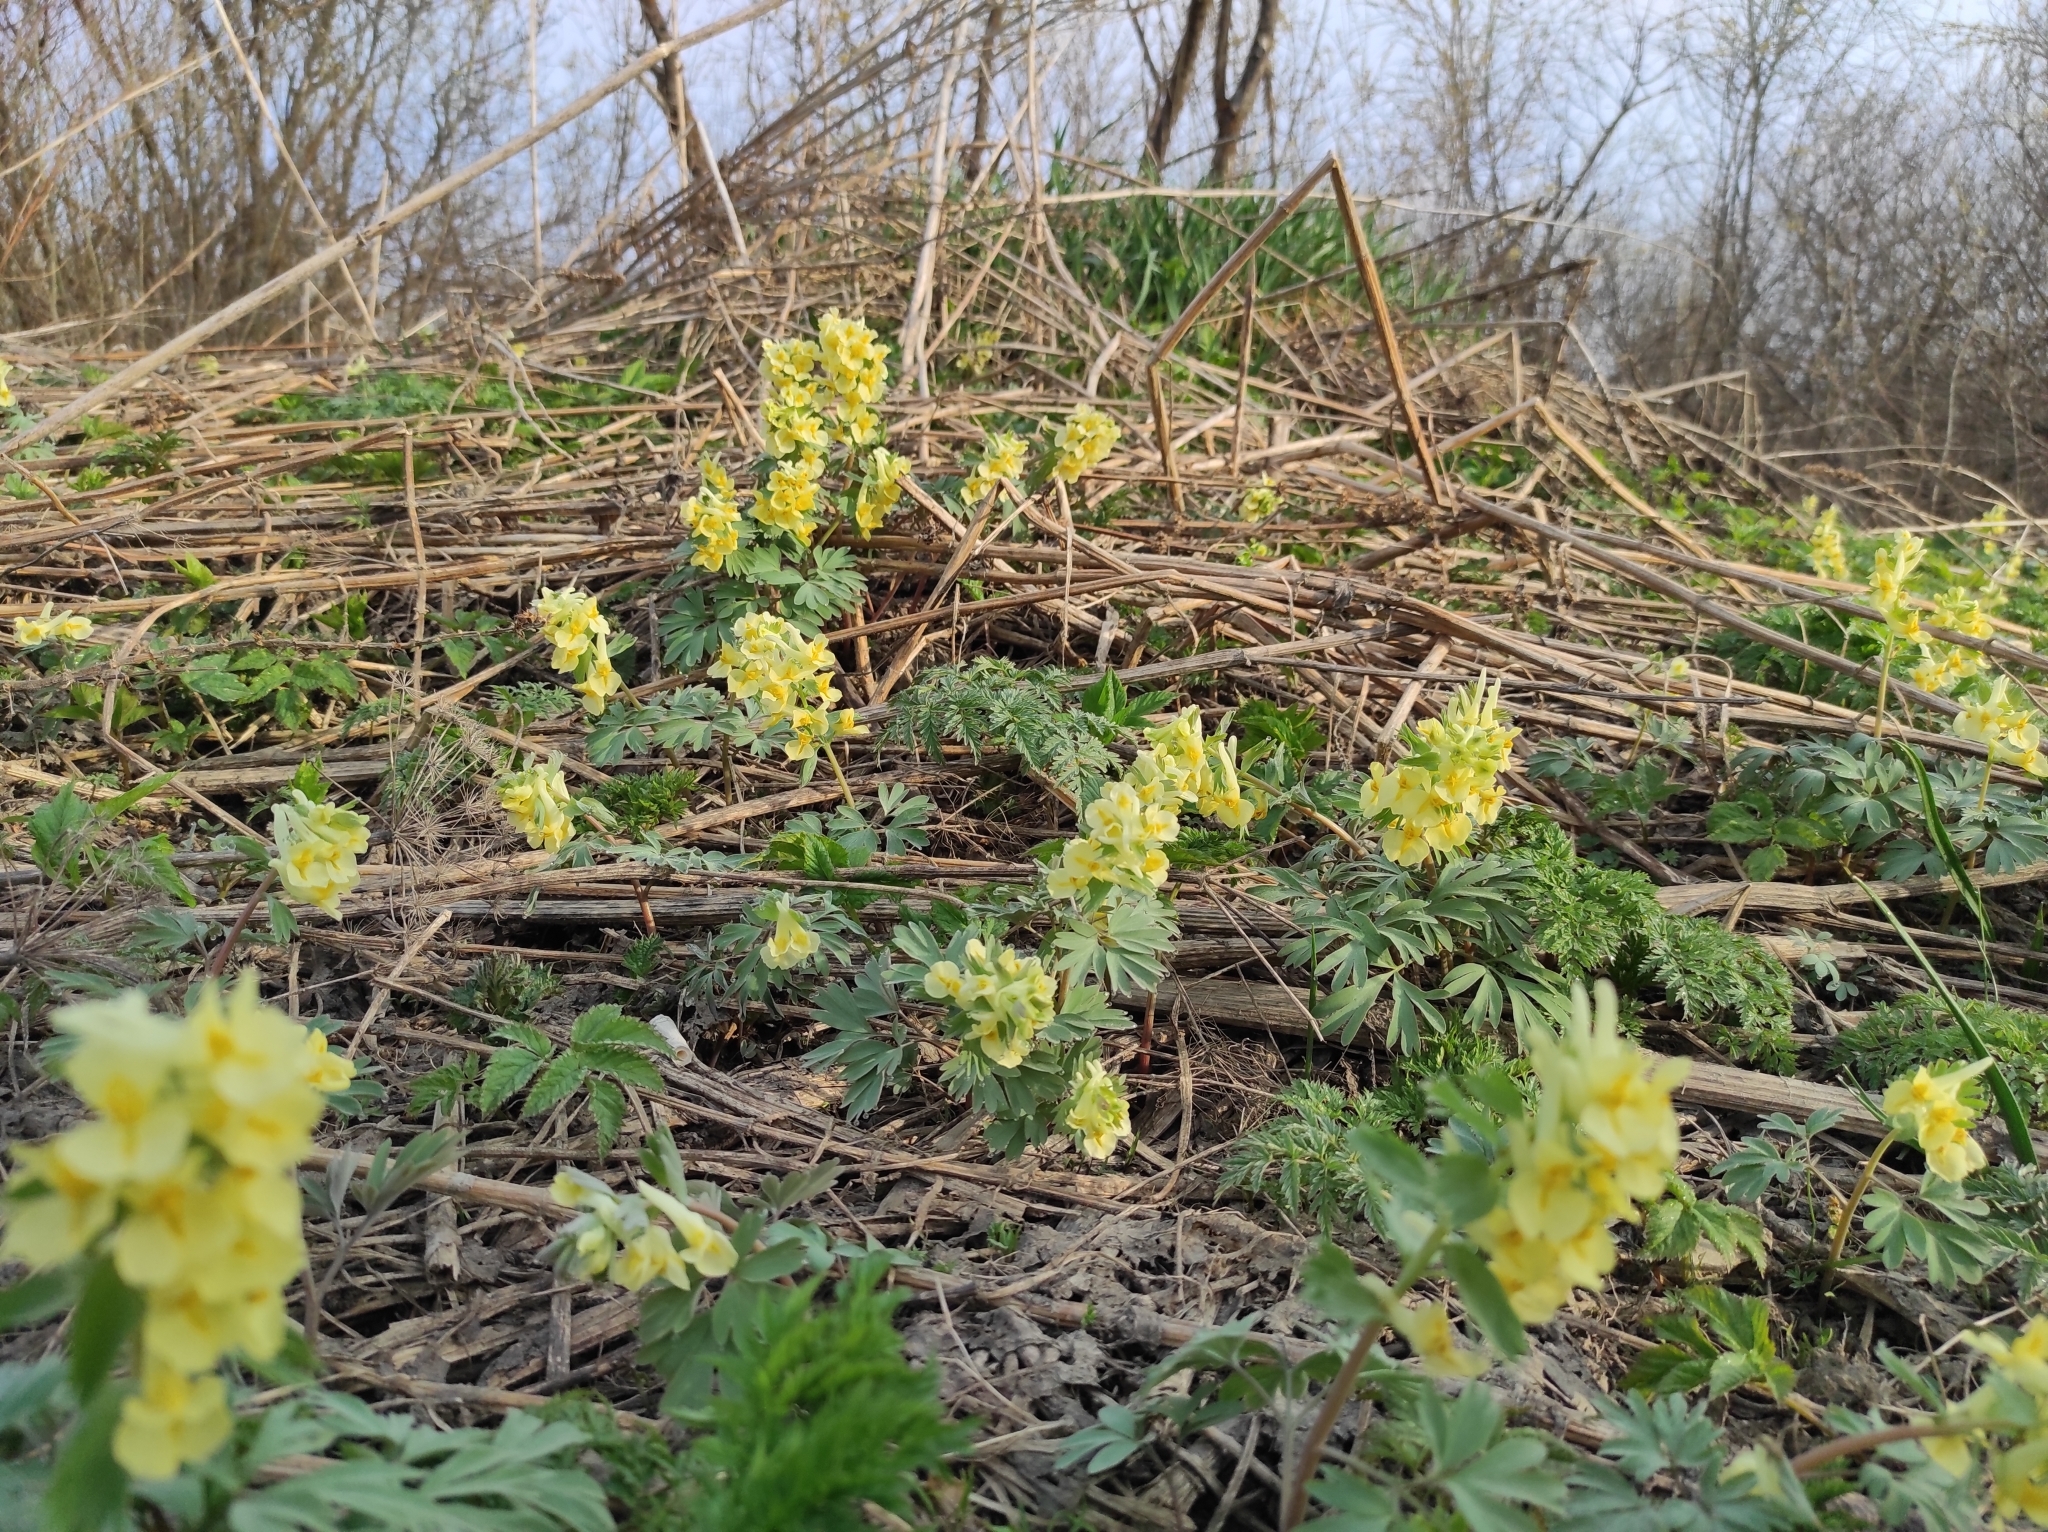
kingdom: Plantae
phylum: Tracheophyta
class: Magnoliopsida
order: Ranunculales
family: Papaveraceae
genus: Corydalis
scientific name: Corydalis bracteata
